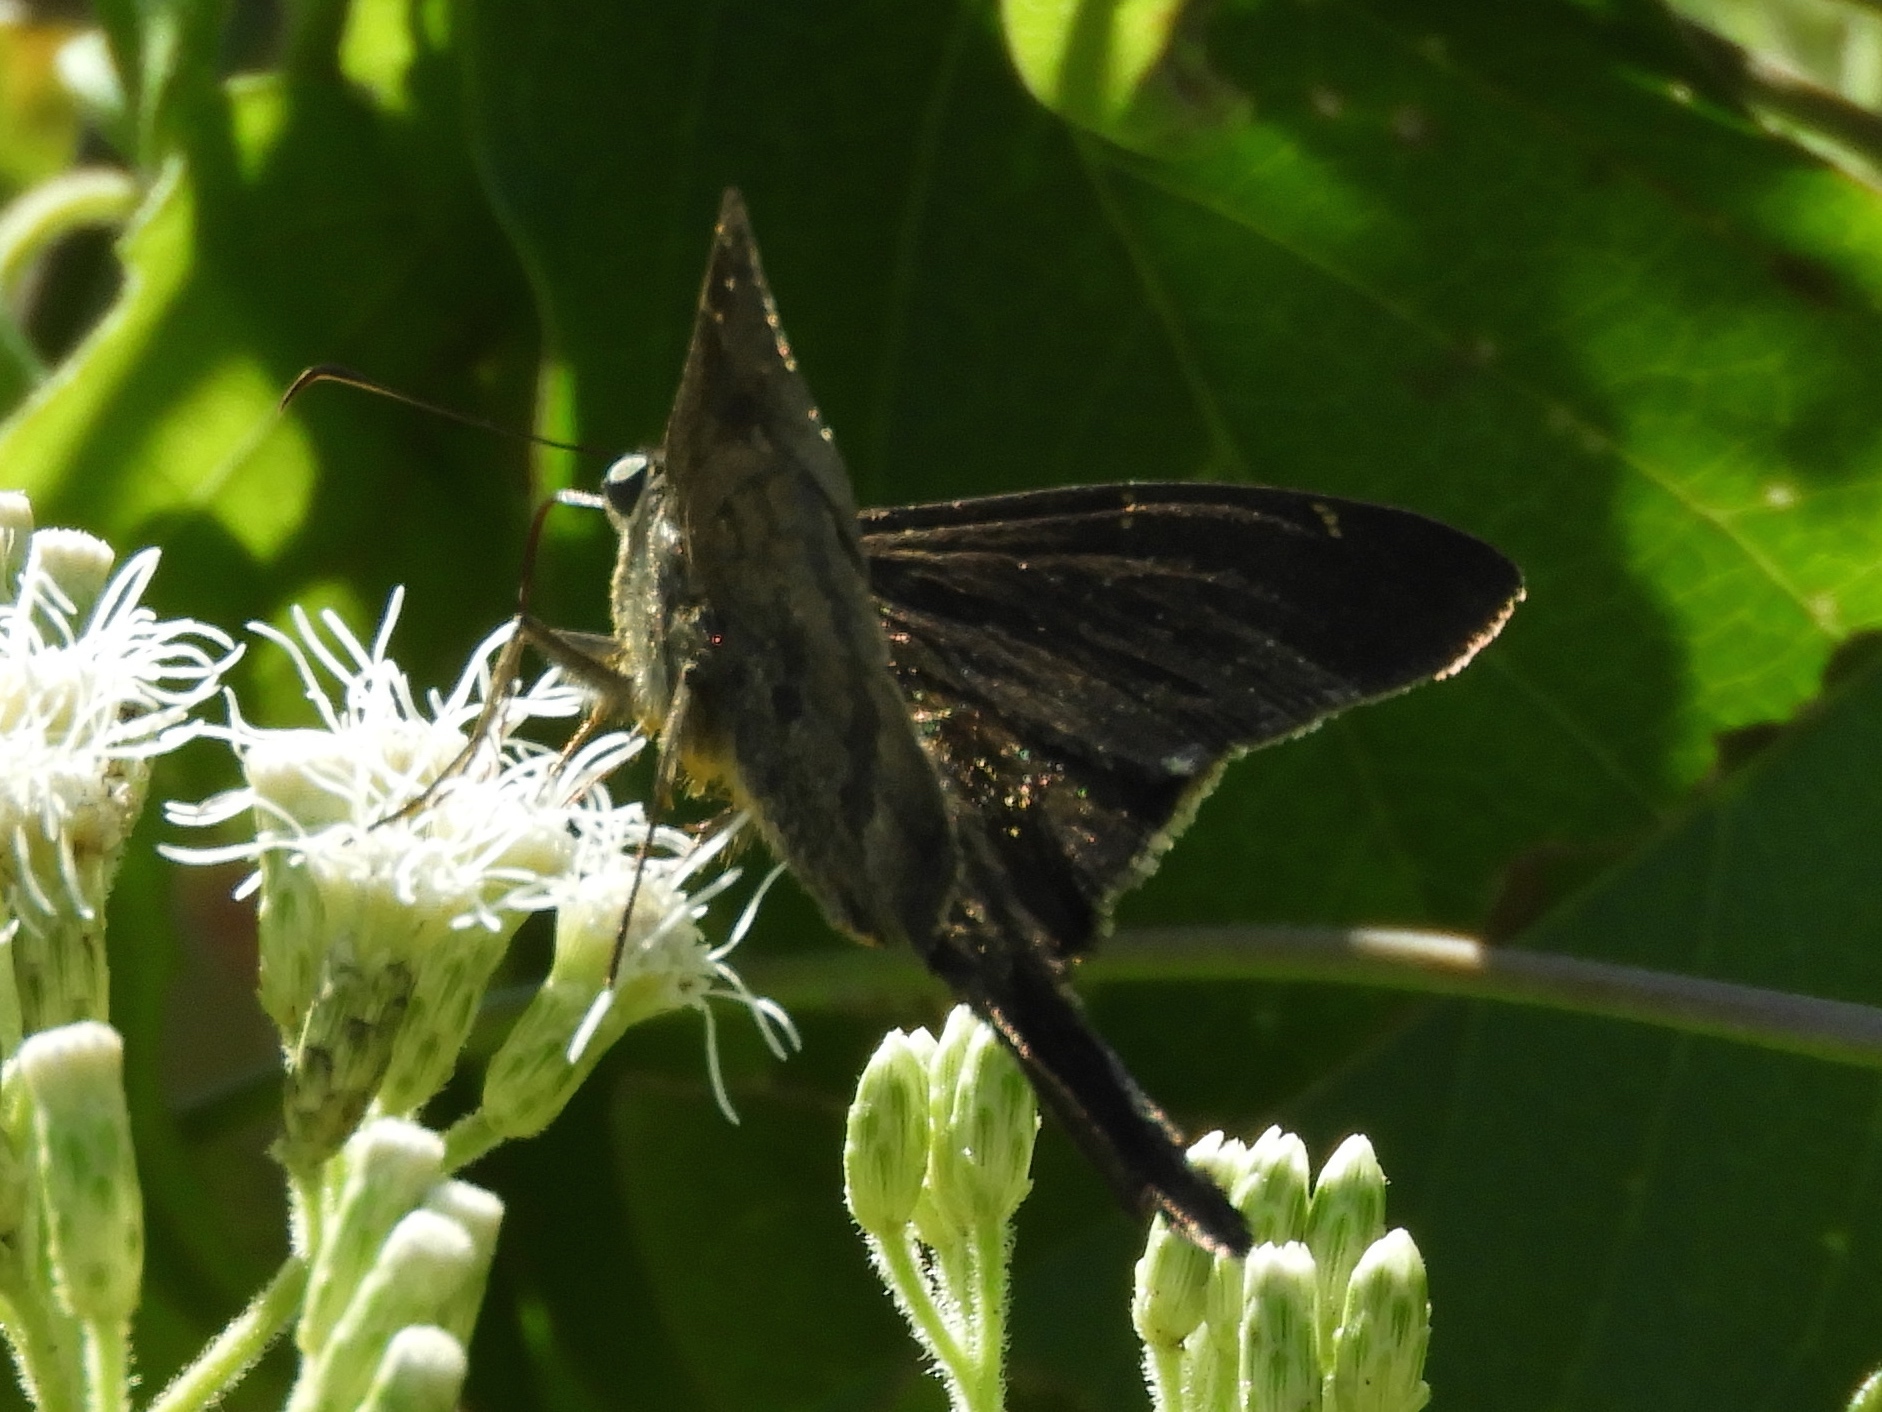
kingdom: Animalia
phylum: Arthropoda
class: Insecta
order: Lepidoptera
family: Hesperiidae
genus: Urbanus
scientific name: Urbanus procne
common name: Brown longtail
